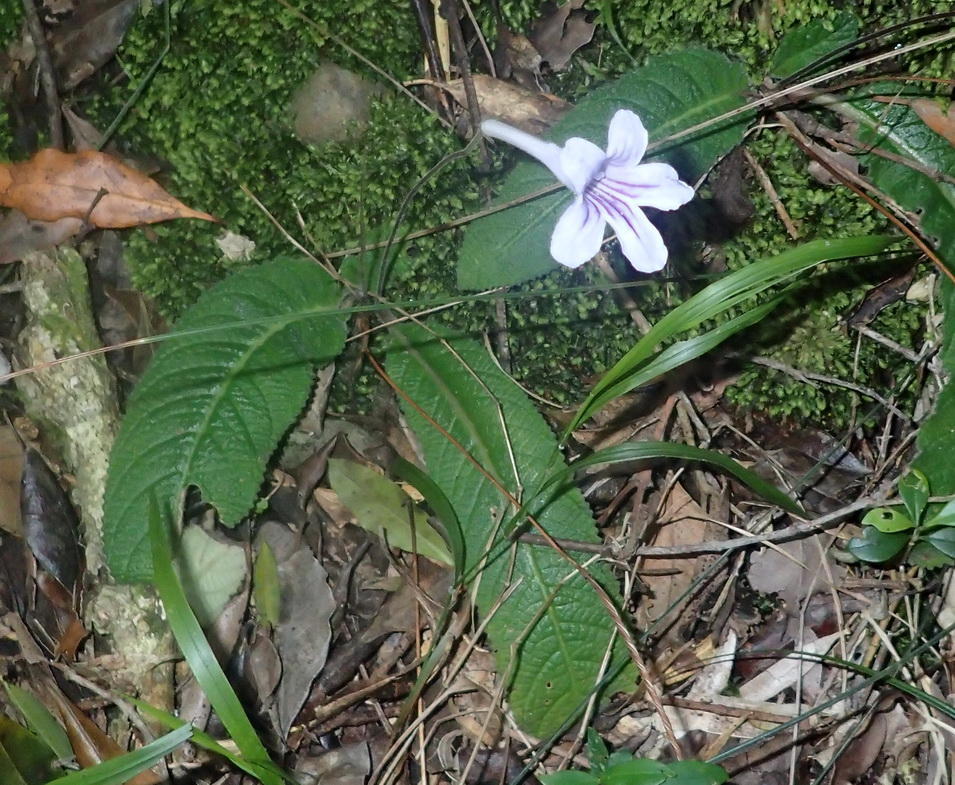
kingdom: Plantae
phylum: Tracheophyta
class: Magnoliopsida
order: Lamiales
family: Gesneriaceae
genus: Streptocarpus
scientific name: Streptocarpus rexii
